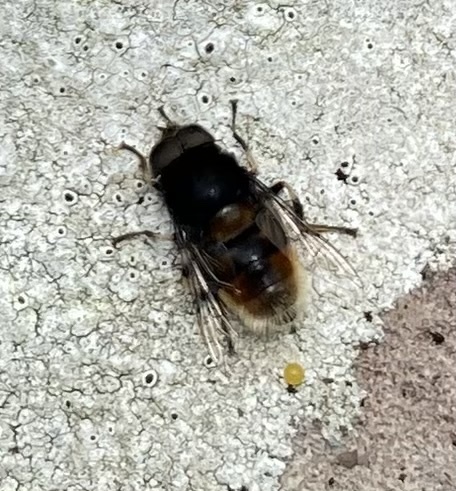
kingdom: Animalia
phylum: Arthropoda
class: Insecta
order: Diptera
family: Syrphidae
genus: Eristalis
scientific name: Eristalis intricaria
